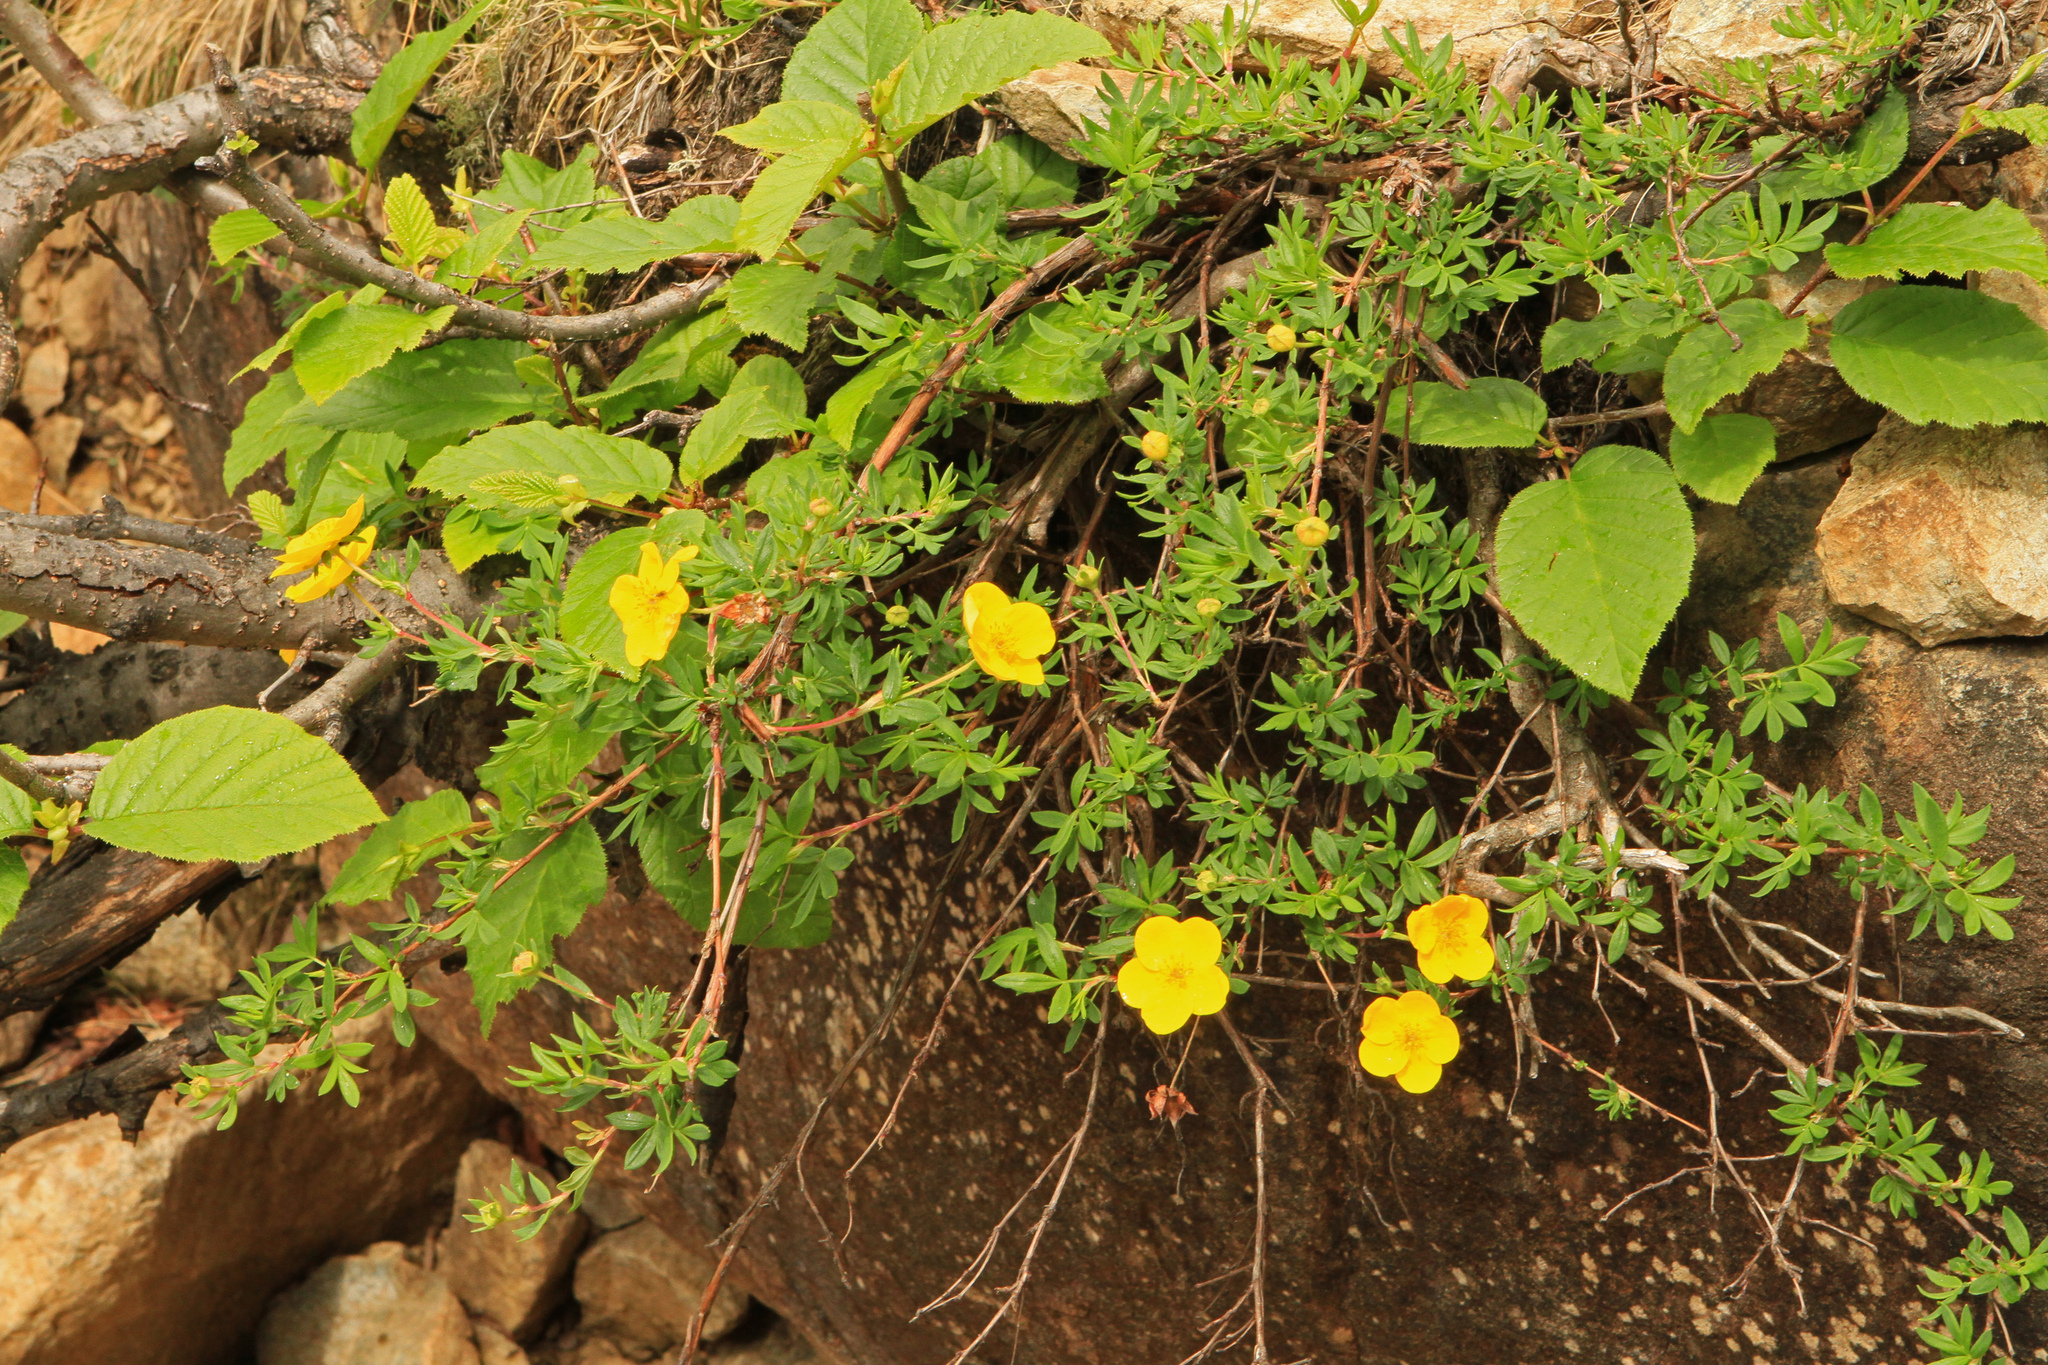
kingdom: Plantae
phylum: Tracheophyta
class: Magnoliopsida
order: Rosales
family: Rosaceae
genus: Dasiphora
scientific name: Dasiphora fruticosa
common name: Shrubby cinquefoil
